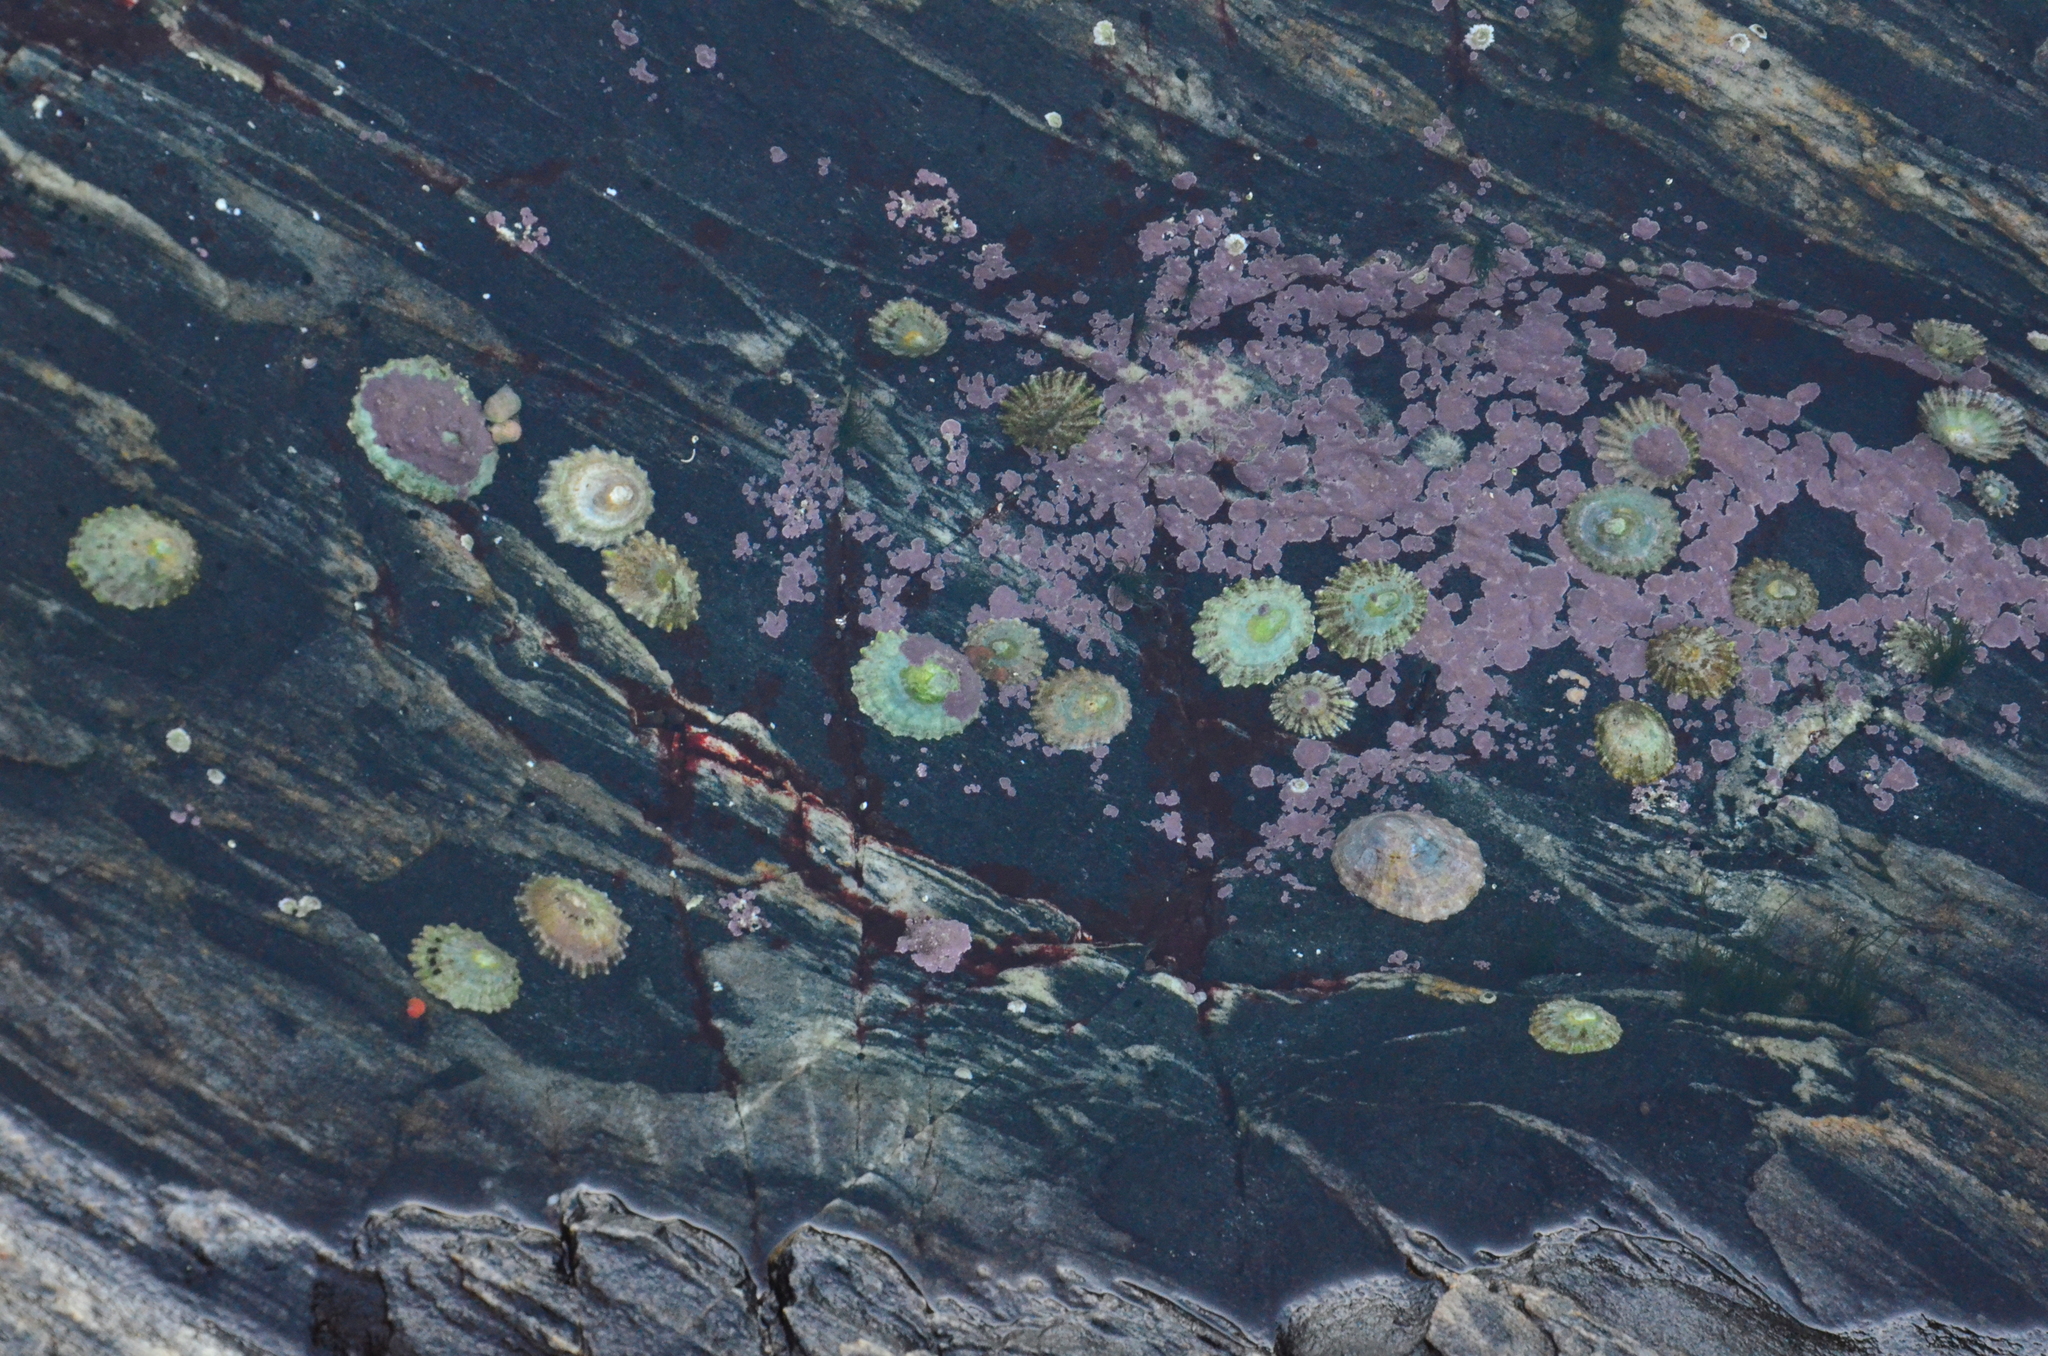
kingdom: Animalia
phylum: Mollusca
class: Gastropoda
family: Patellidae
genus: Patella
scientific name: Patella vulgata
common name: Common limpet
